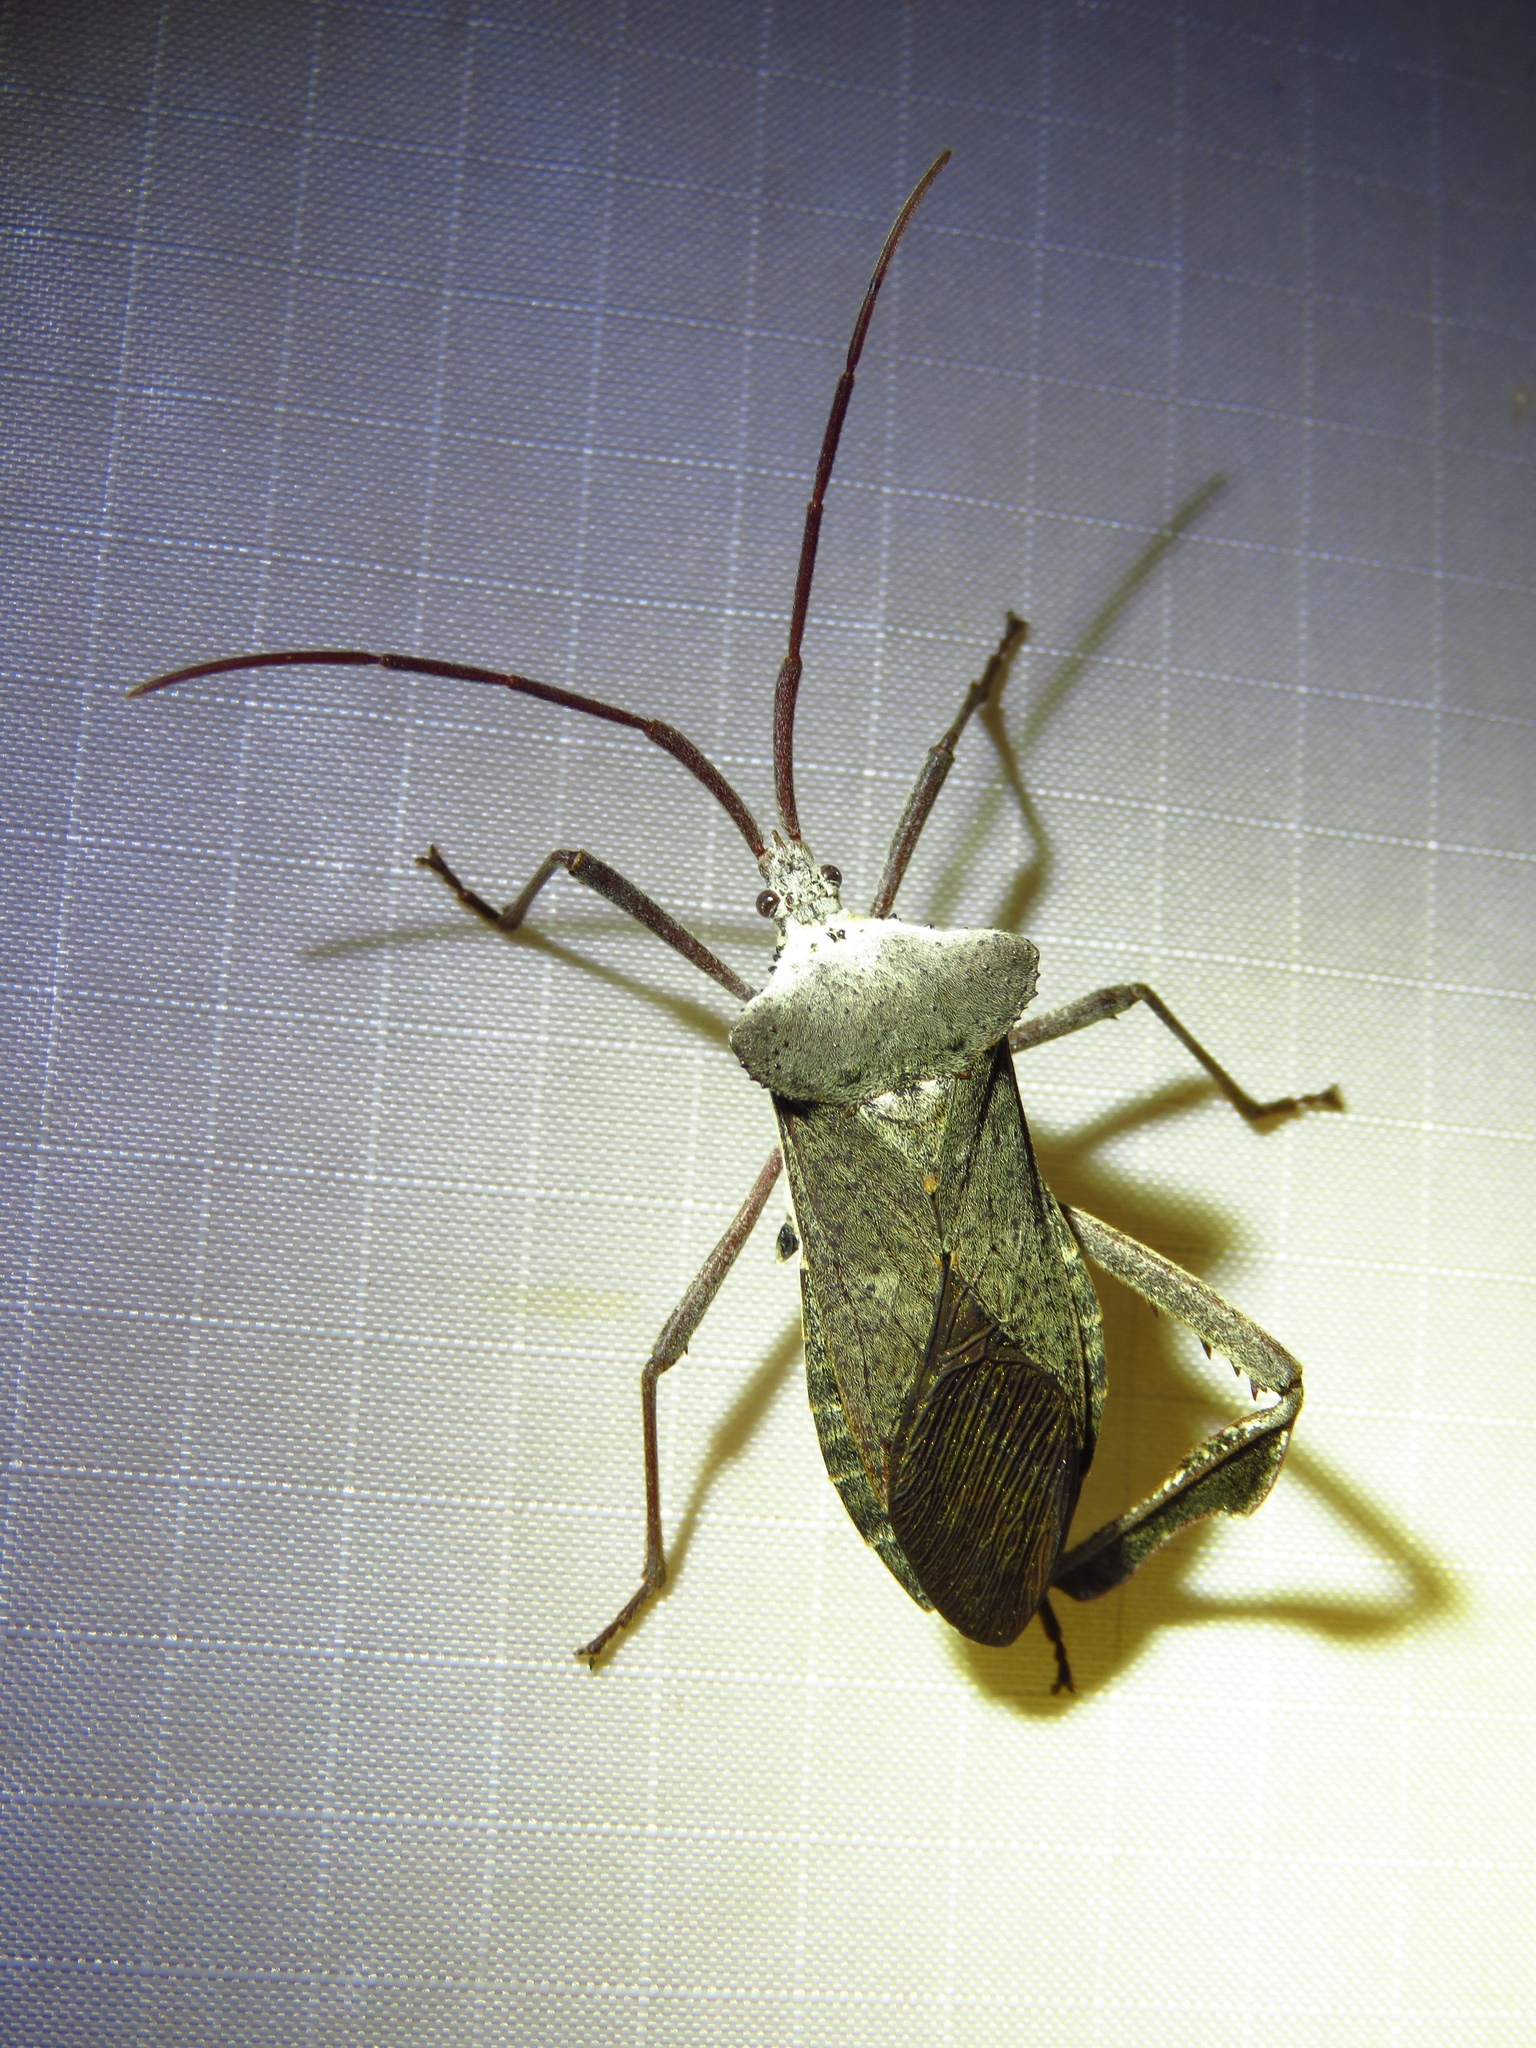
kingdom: Animalia
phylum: Arthropoda
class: Insecta
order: Hemiptera
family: Coreidae
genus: Acanthocephala
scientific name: Acanthocephala declivis
